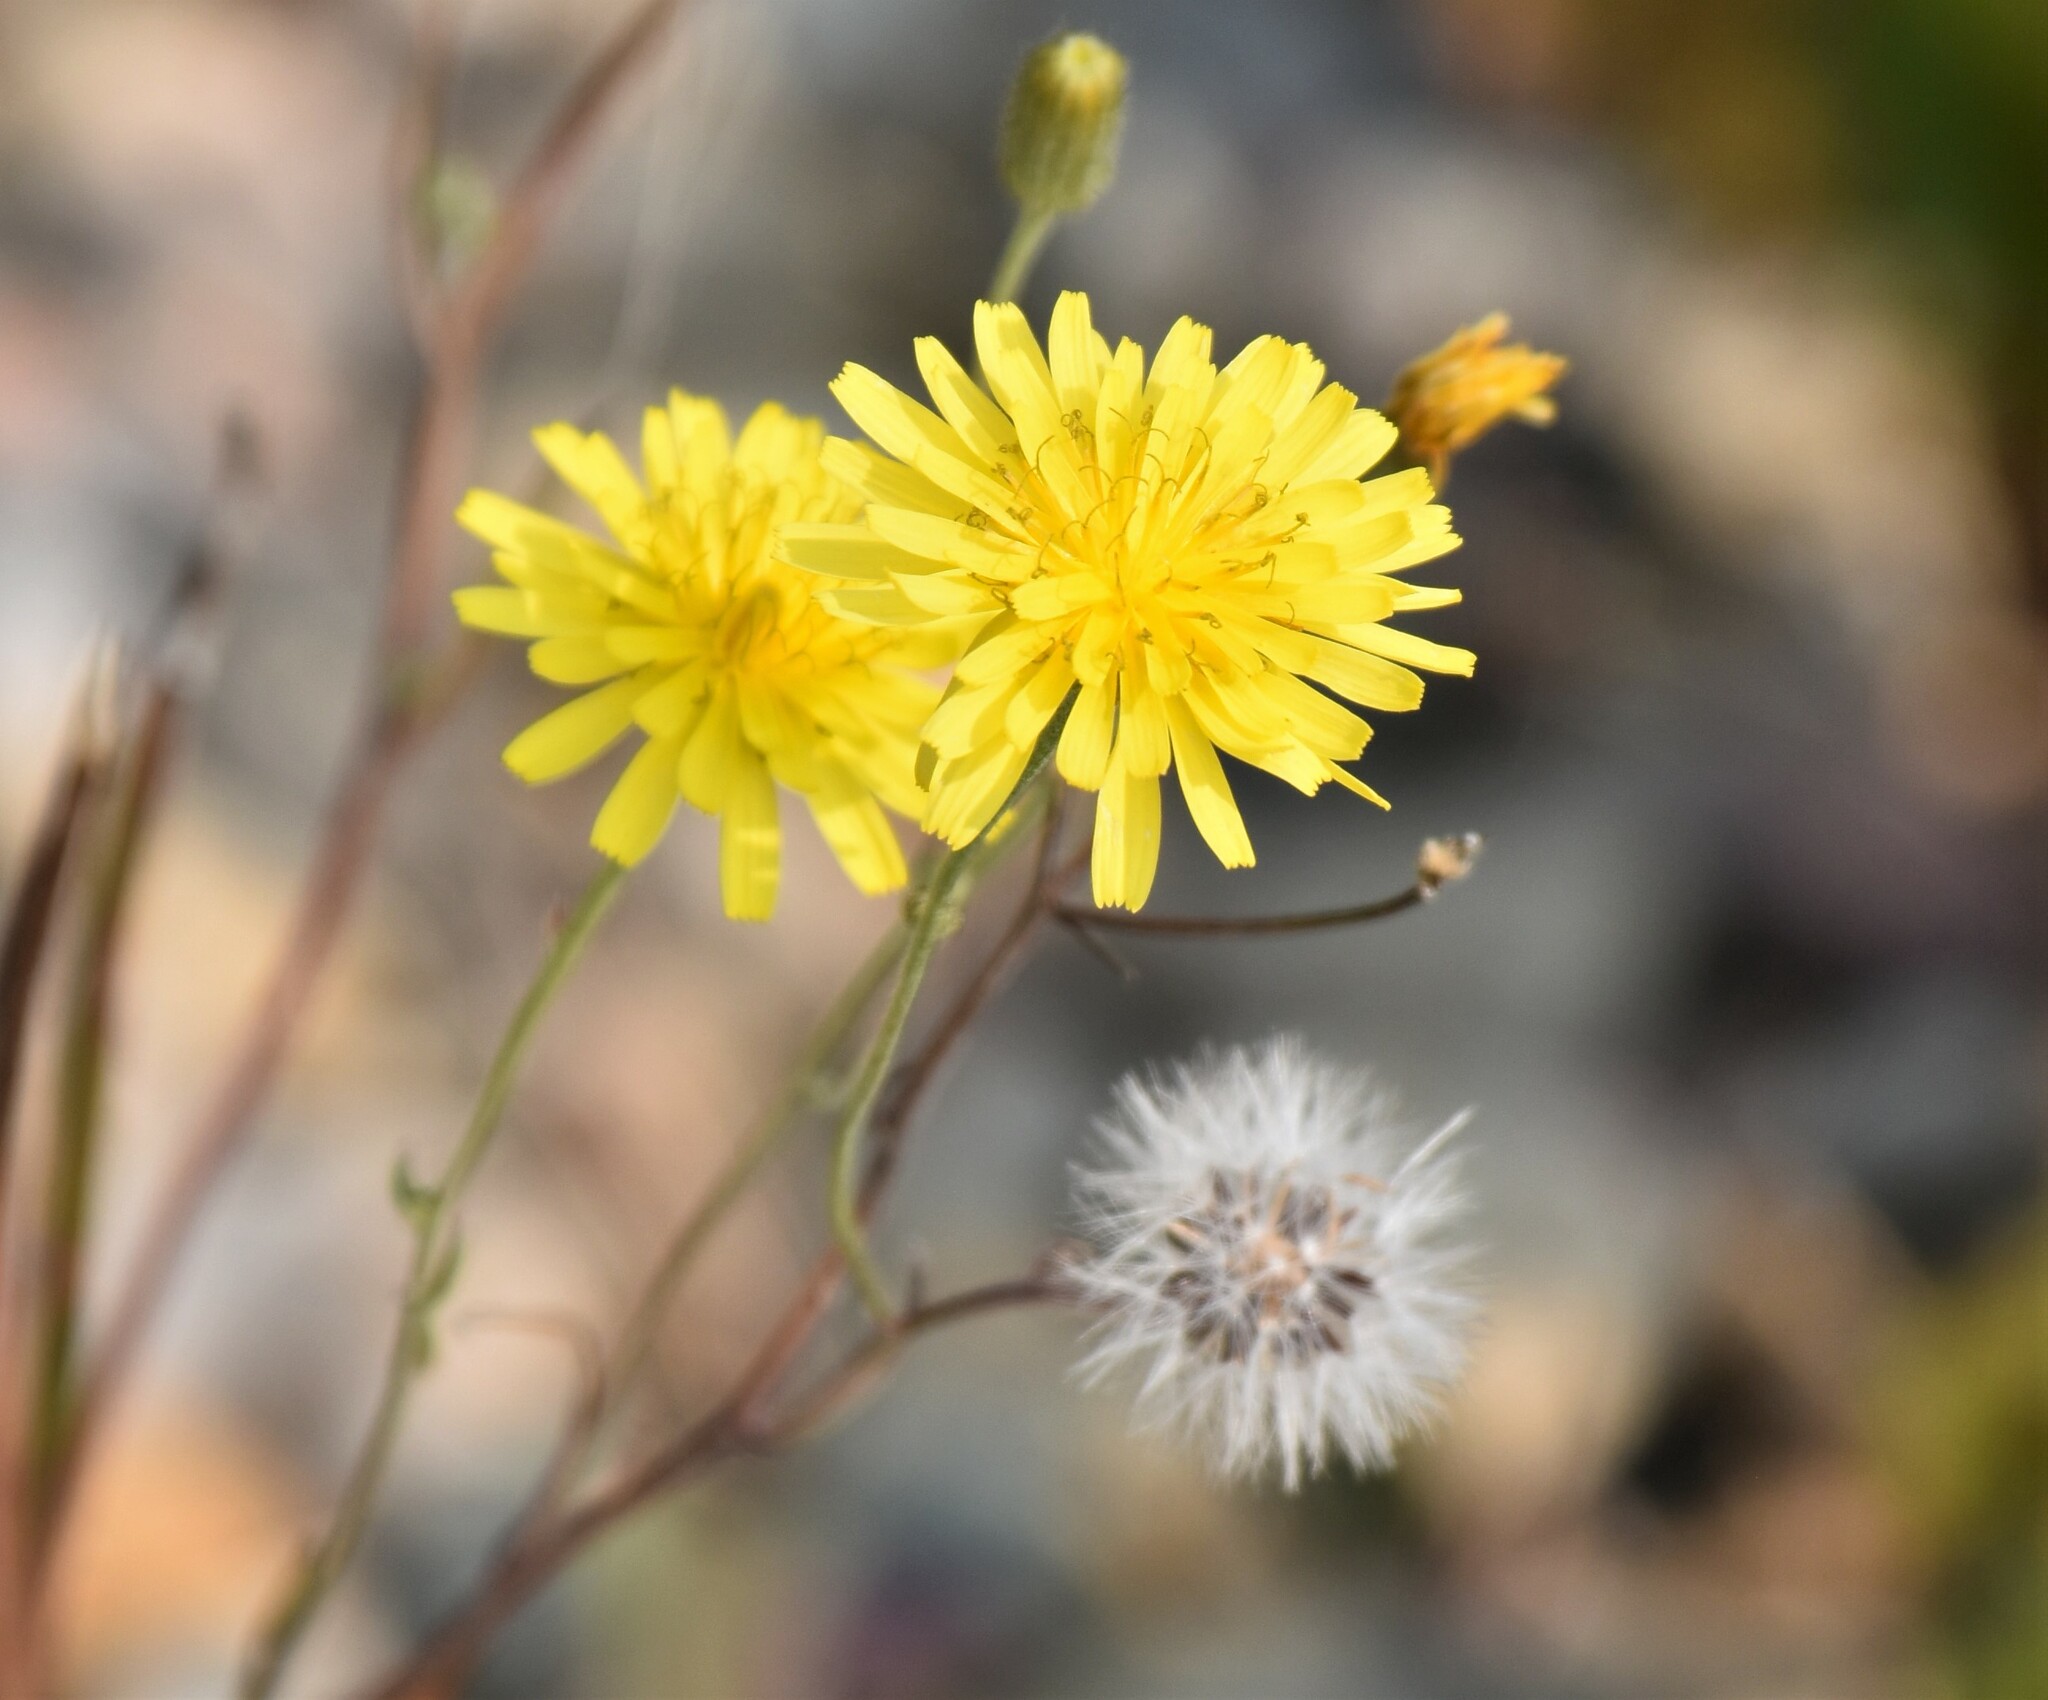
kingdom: Plantae
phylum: Tracheophyta
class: Magnoliopsida
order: Asterales
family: Asteraceae
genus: Crepis
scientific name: Crepis tectorum
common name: Narrow-leaved hawk's-beard
